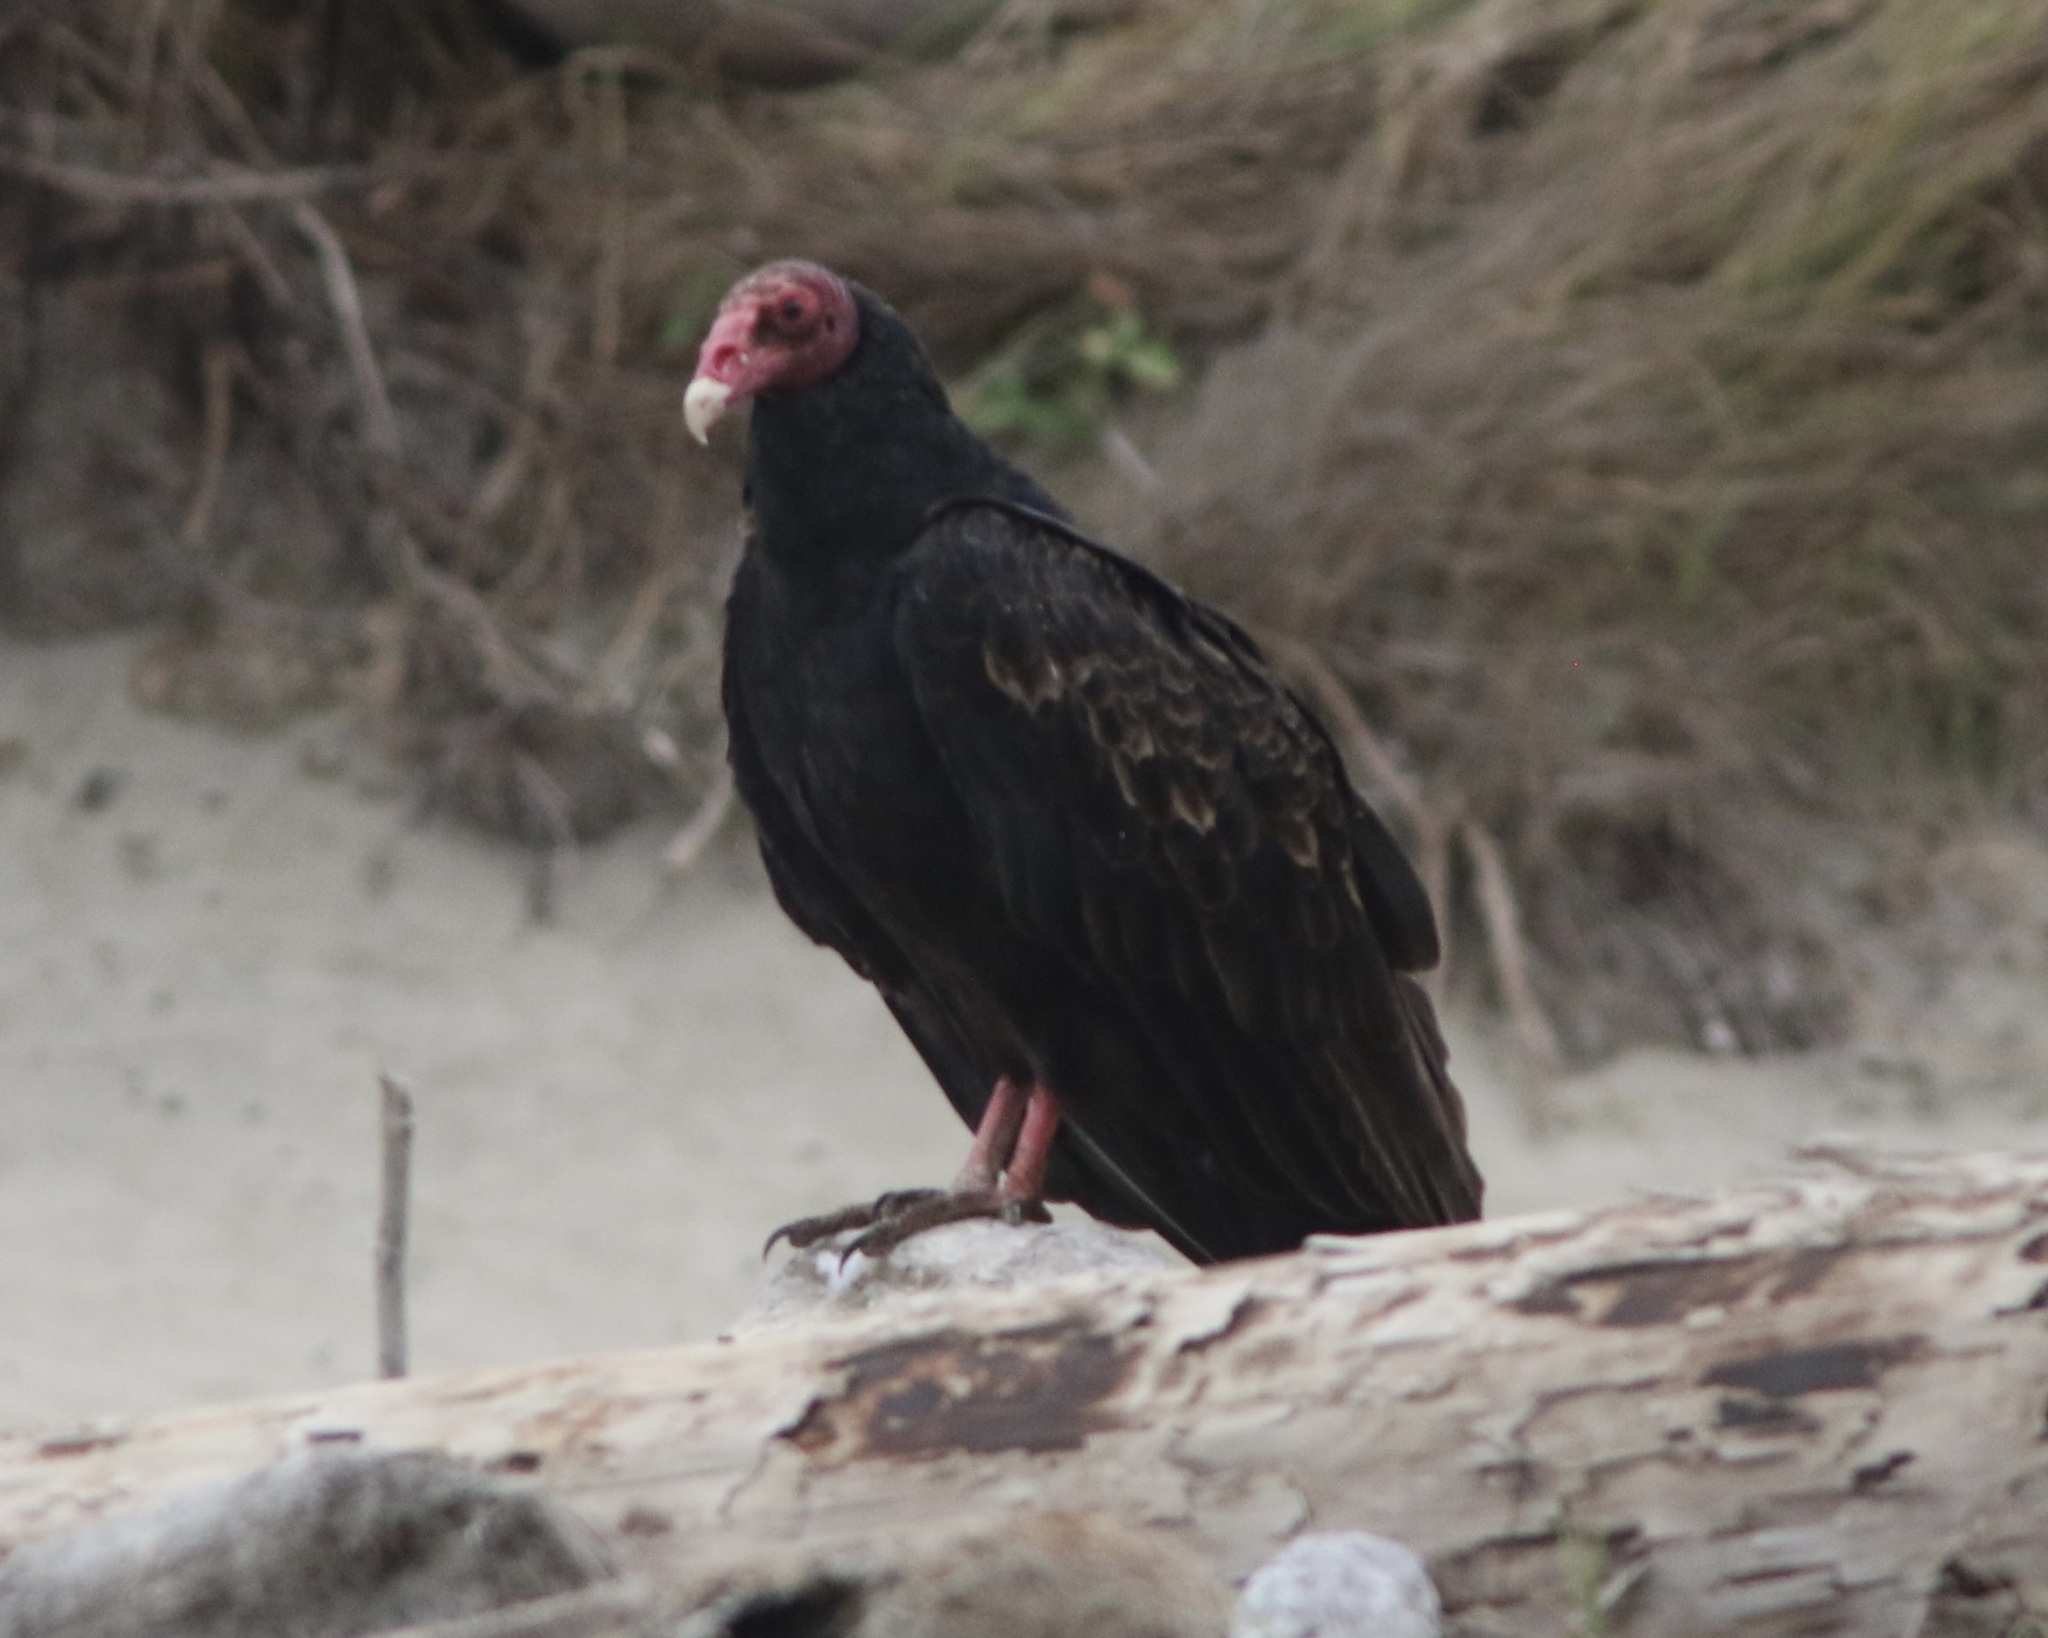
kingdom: Animalia
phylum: Chordata
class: Aves
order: Accipitriformes
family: Cathartidae
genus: Cathartes
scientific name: Cathartes aura
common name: Turkey vulture
